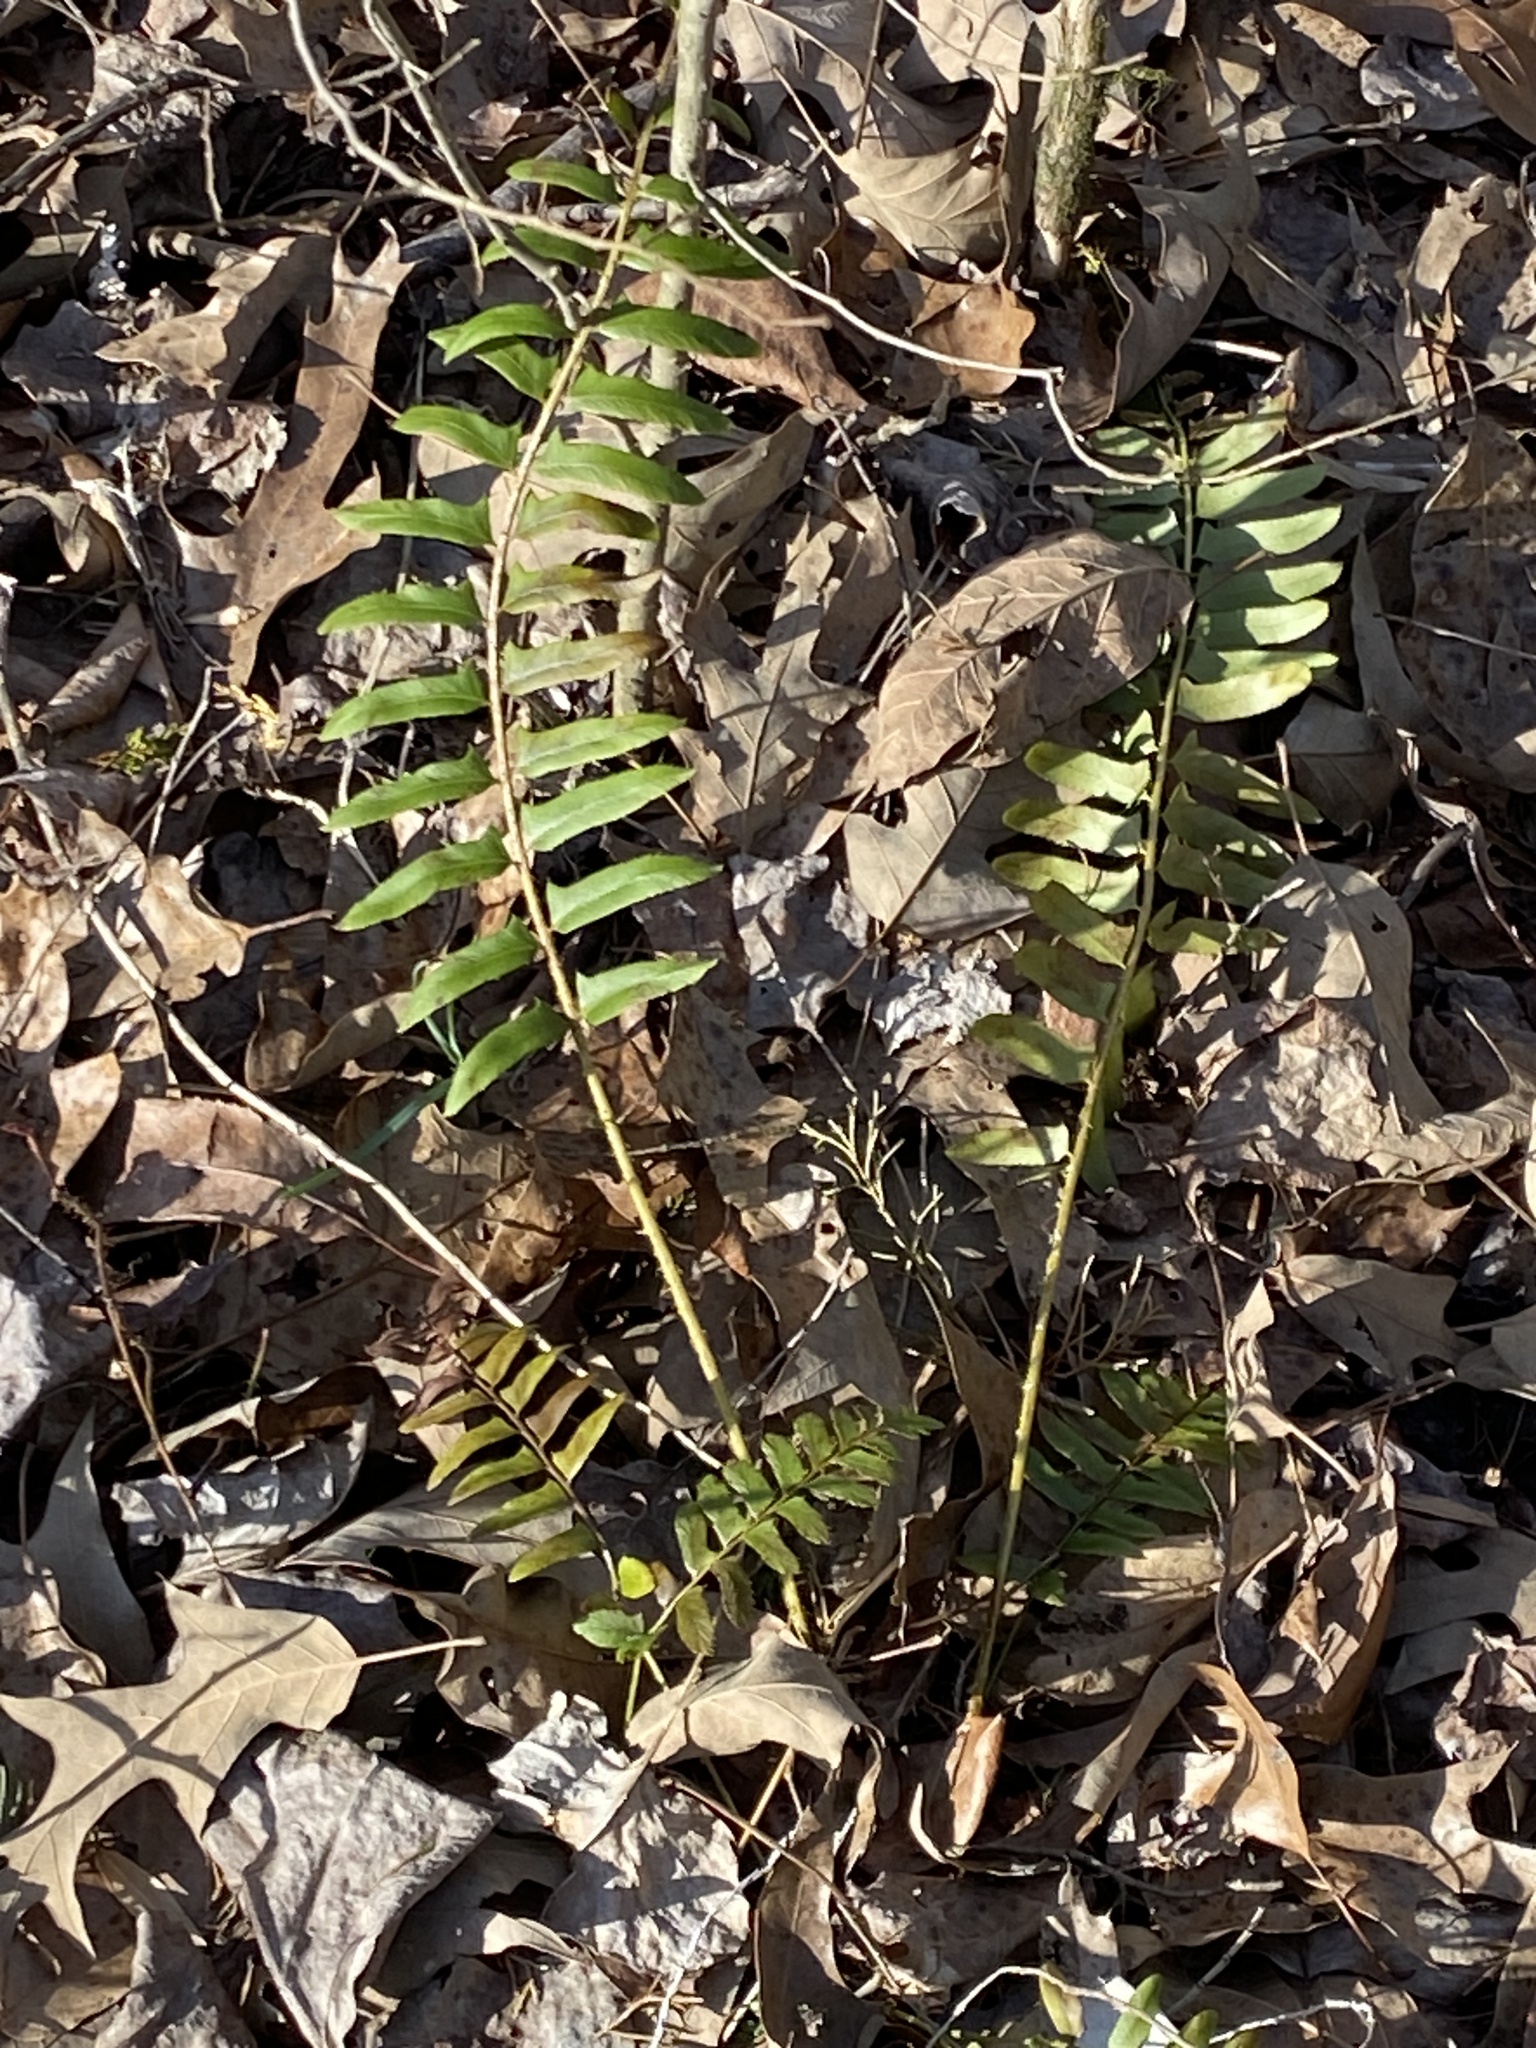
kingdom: Plantae
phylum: Tracheophyta
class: Polypodiopsida
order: Polypodiales
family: Dryopteridaceae
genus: Polystichum
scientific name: Polystichum acrostichoides
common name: Christmas fern
